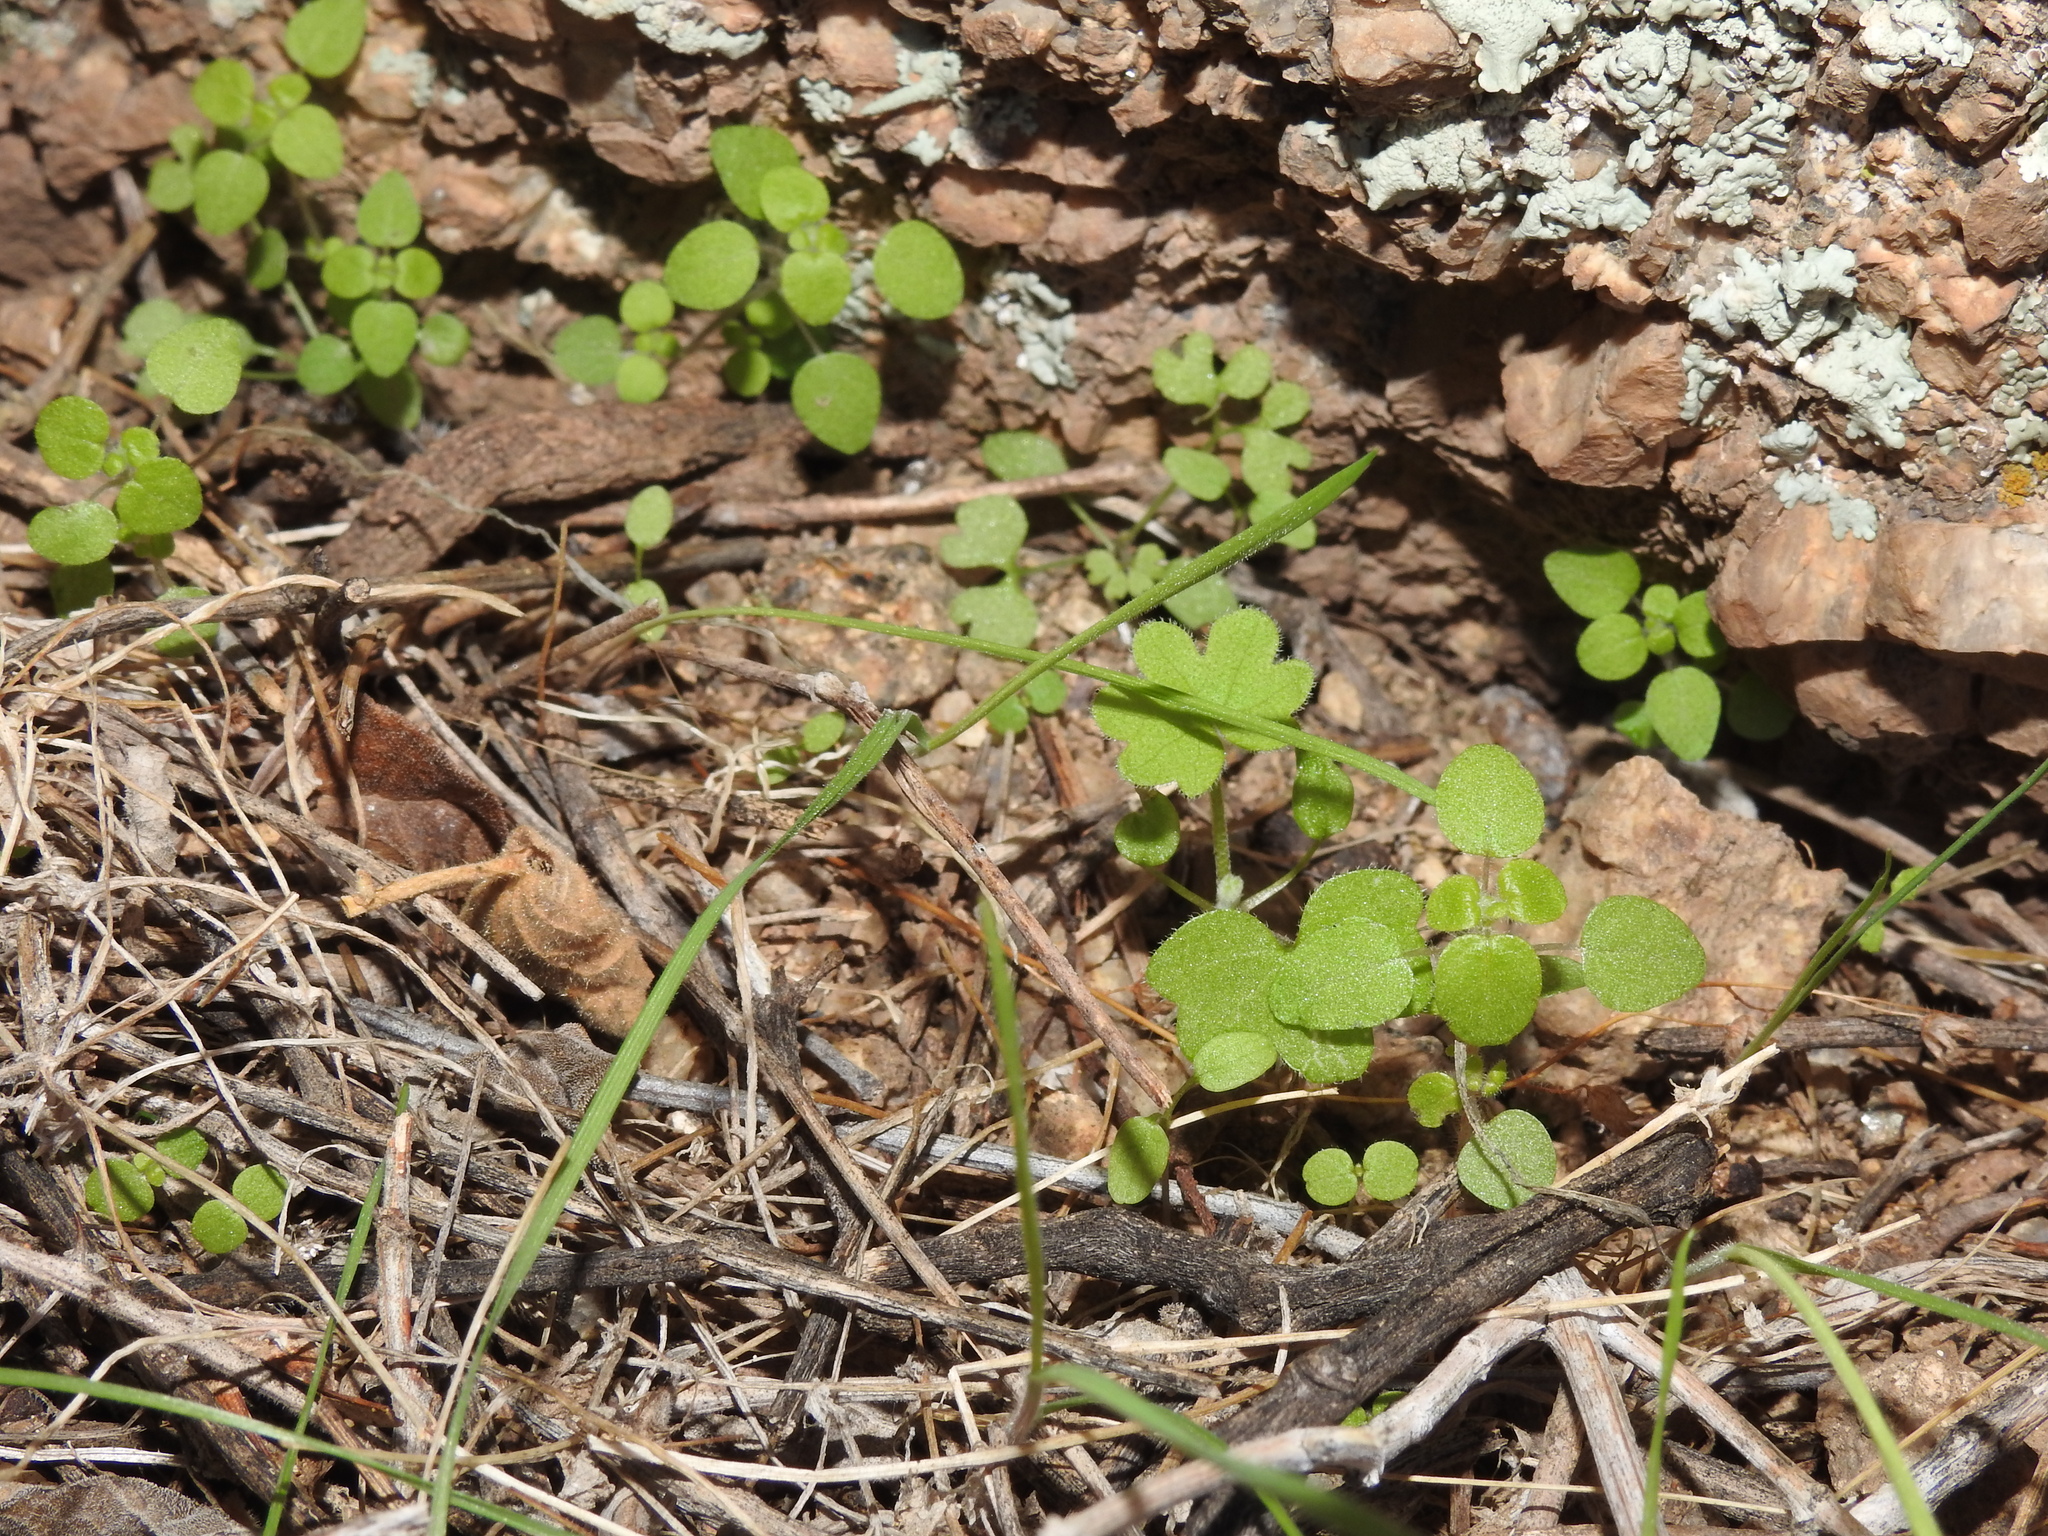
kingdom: Plantae
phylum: Tracheophyta
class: Magnoliopsida
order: Apiales
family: Apiaceae
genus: Bowlesia
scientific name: Bowlesia incana
